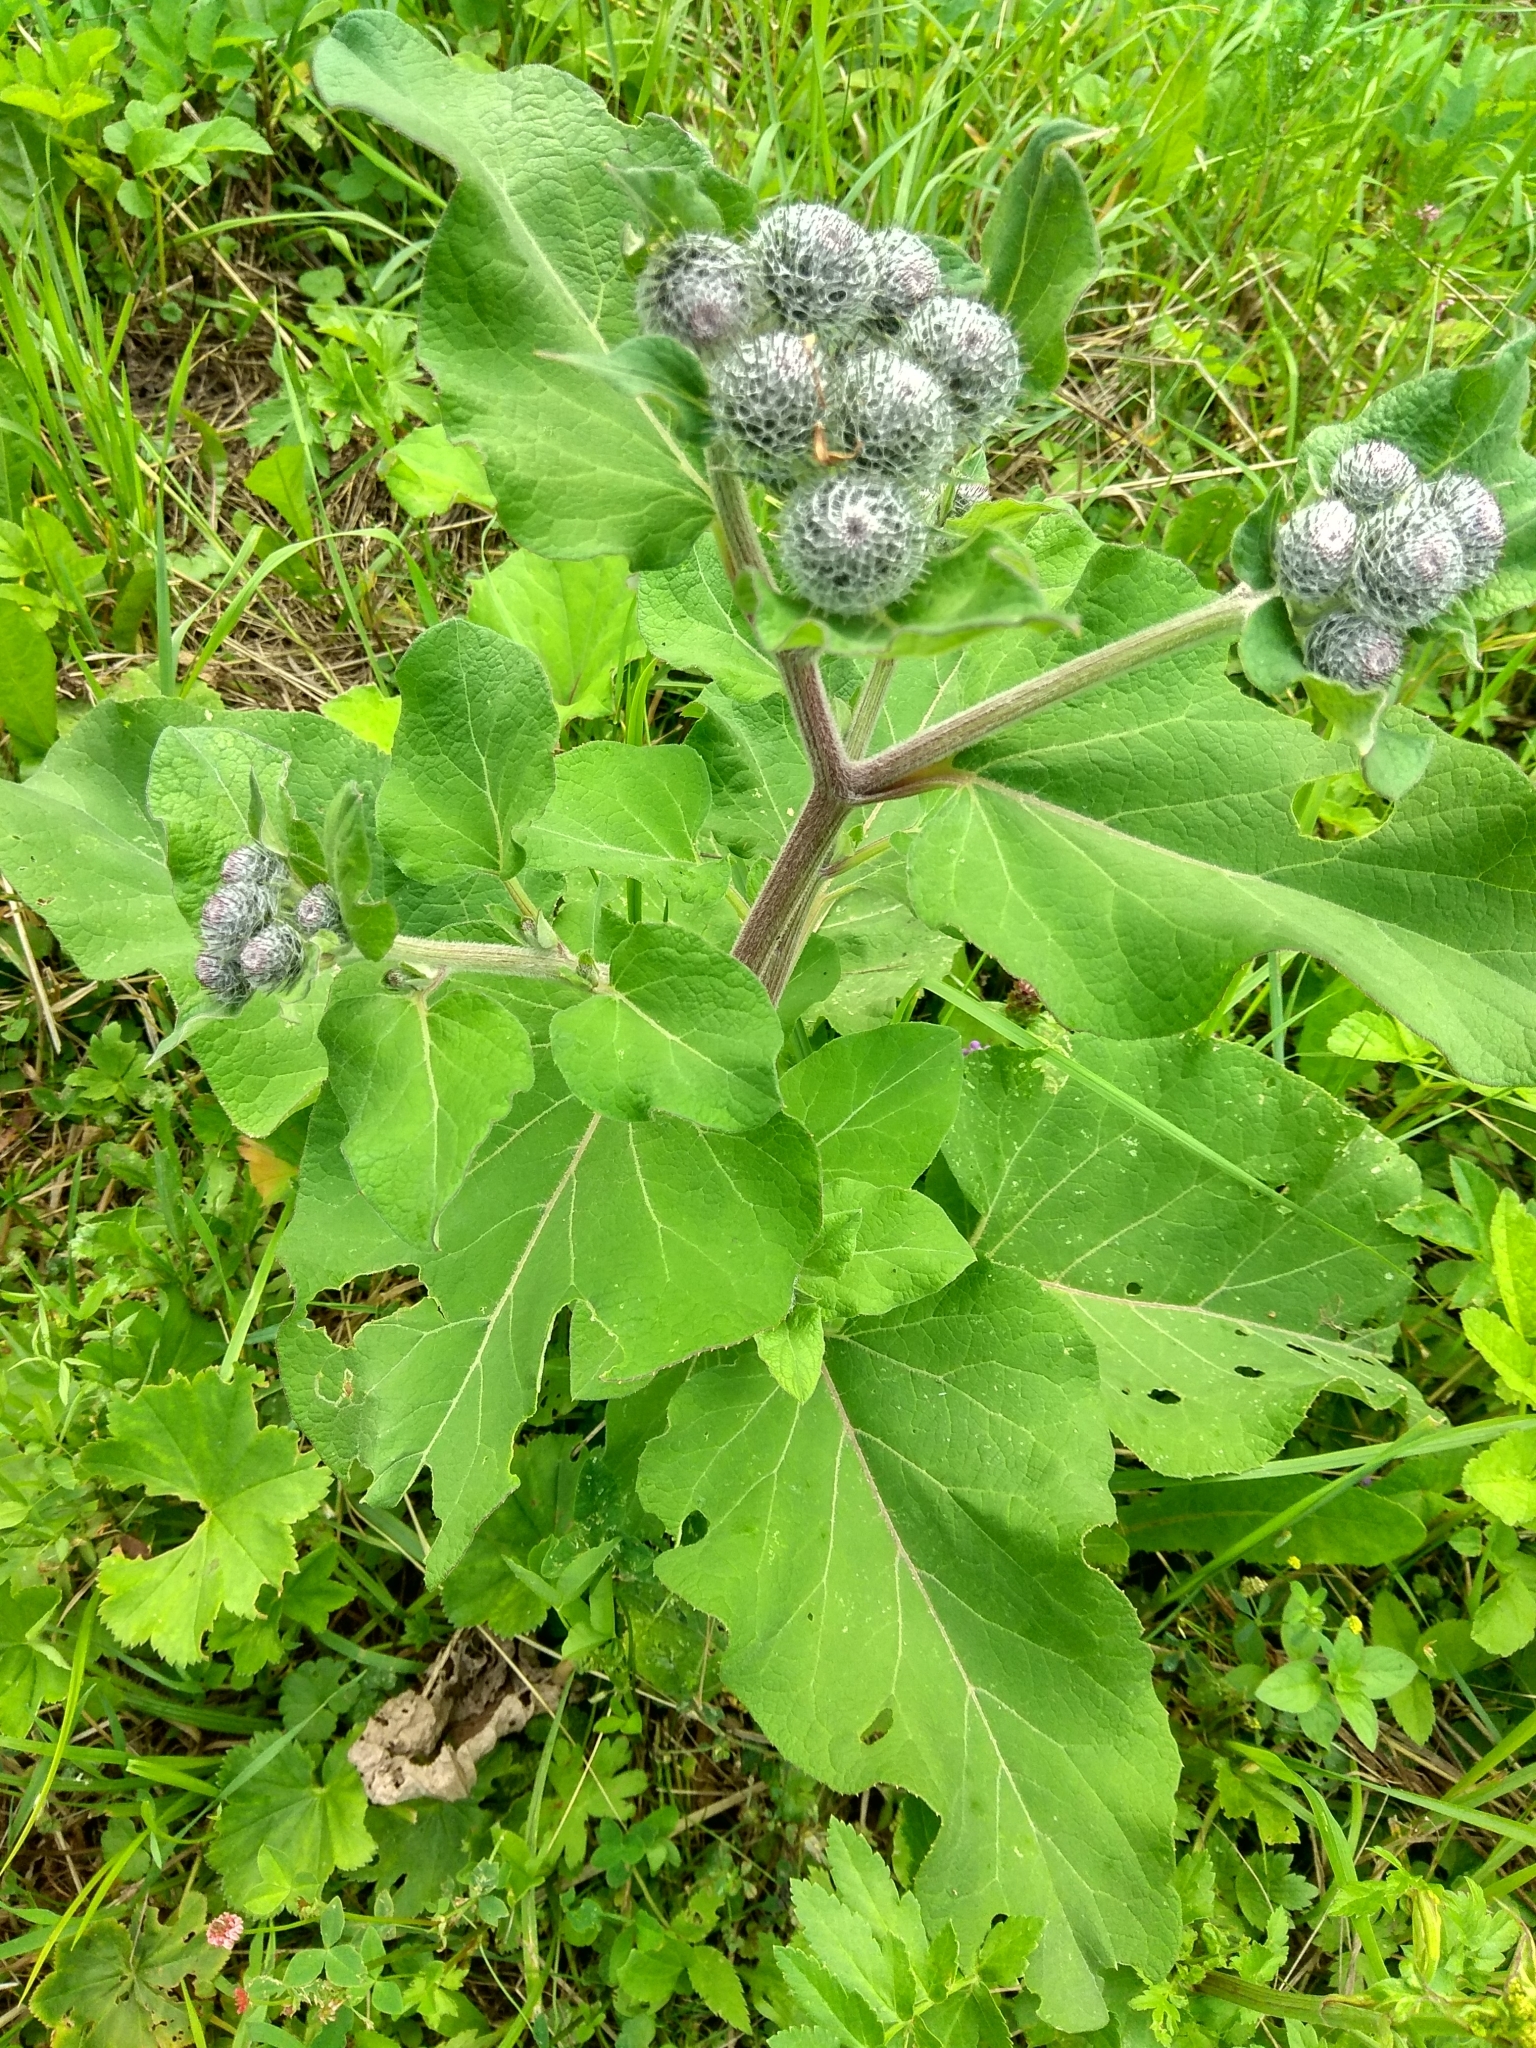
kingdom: Plantae
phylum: Tracheophyta
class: Magnoliopsida
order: Asterales
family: Asteraceae
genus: Arctium
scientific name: Arctium tomentosum
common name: Woolly burdock
